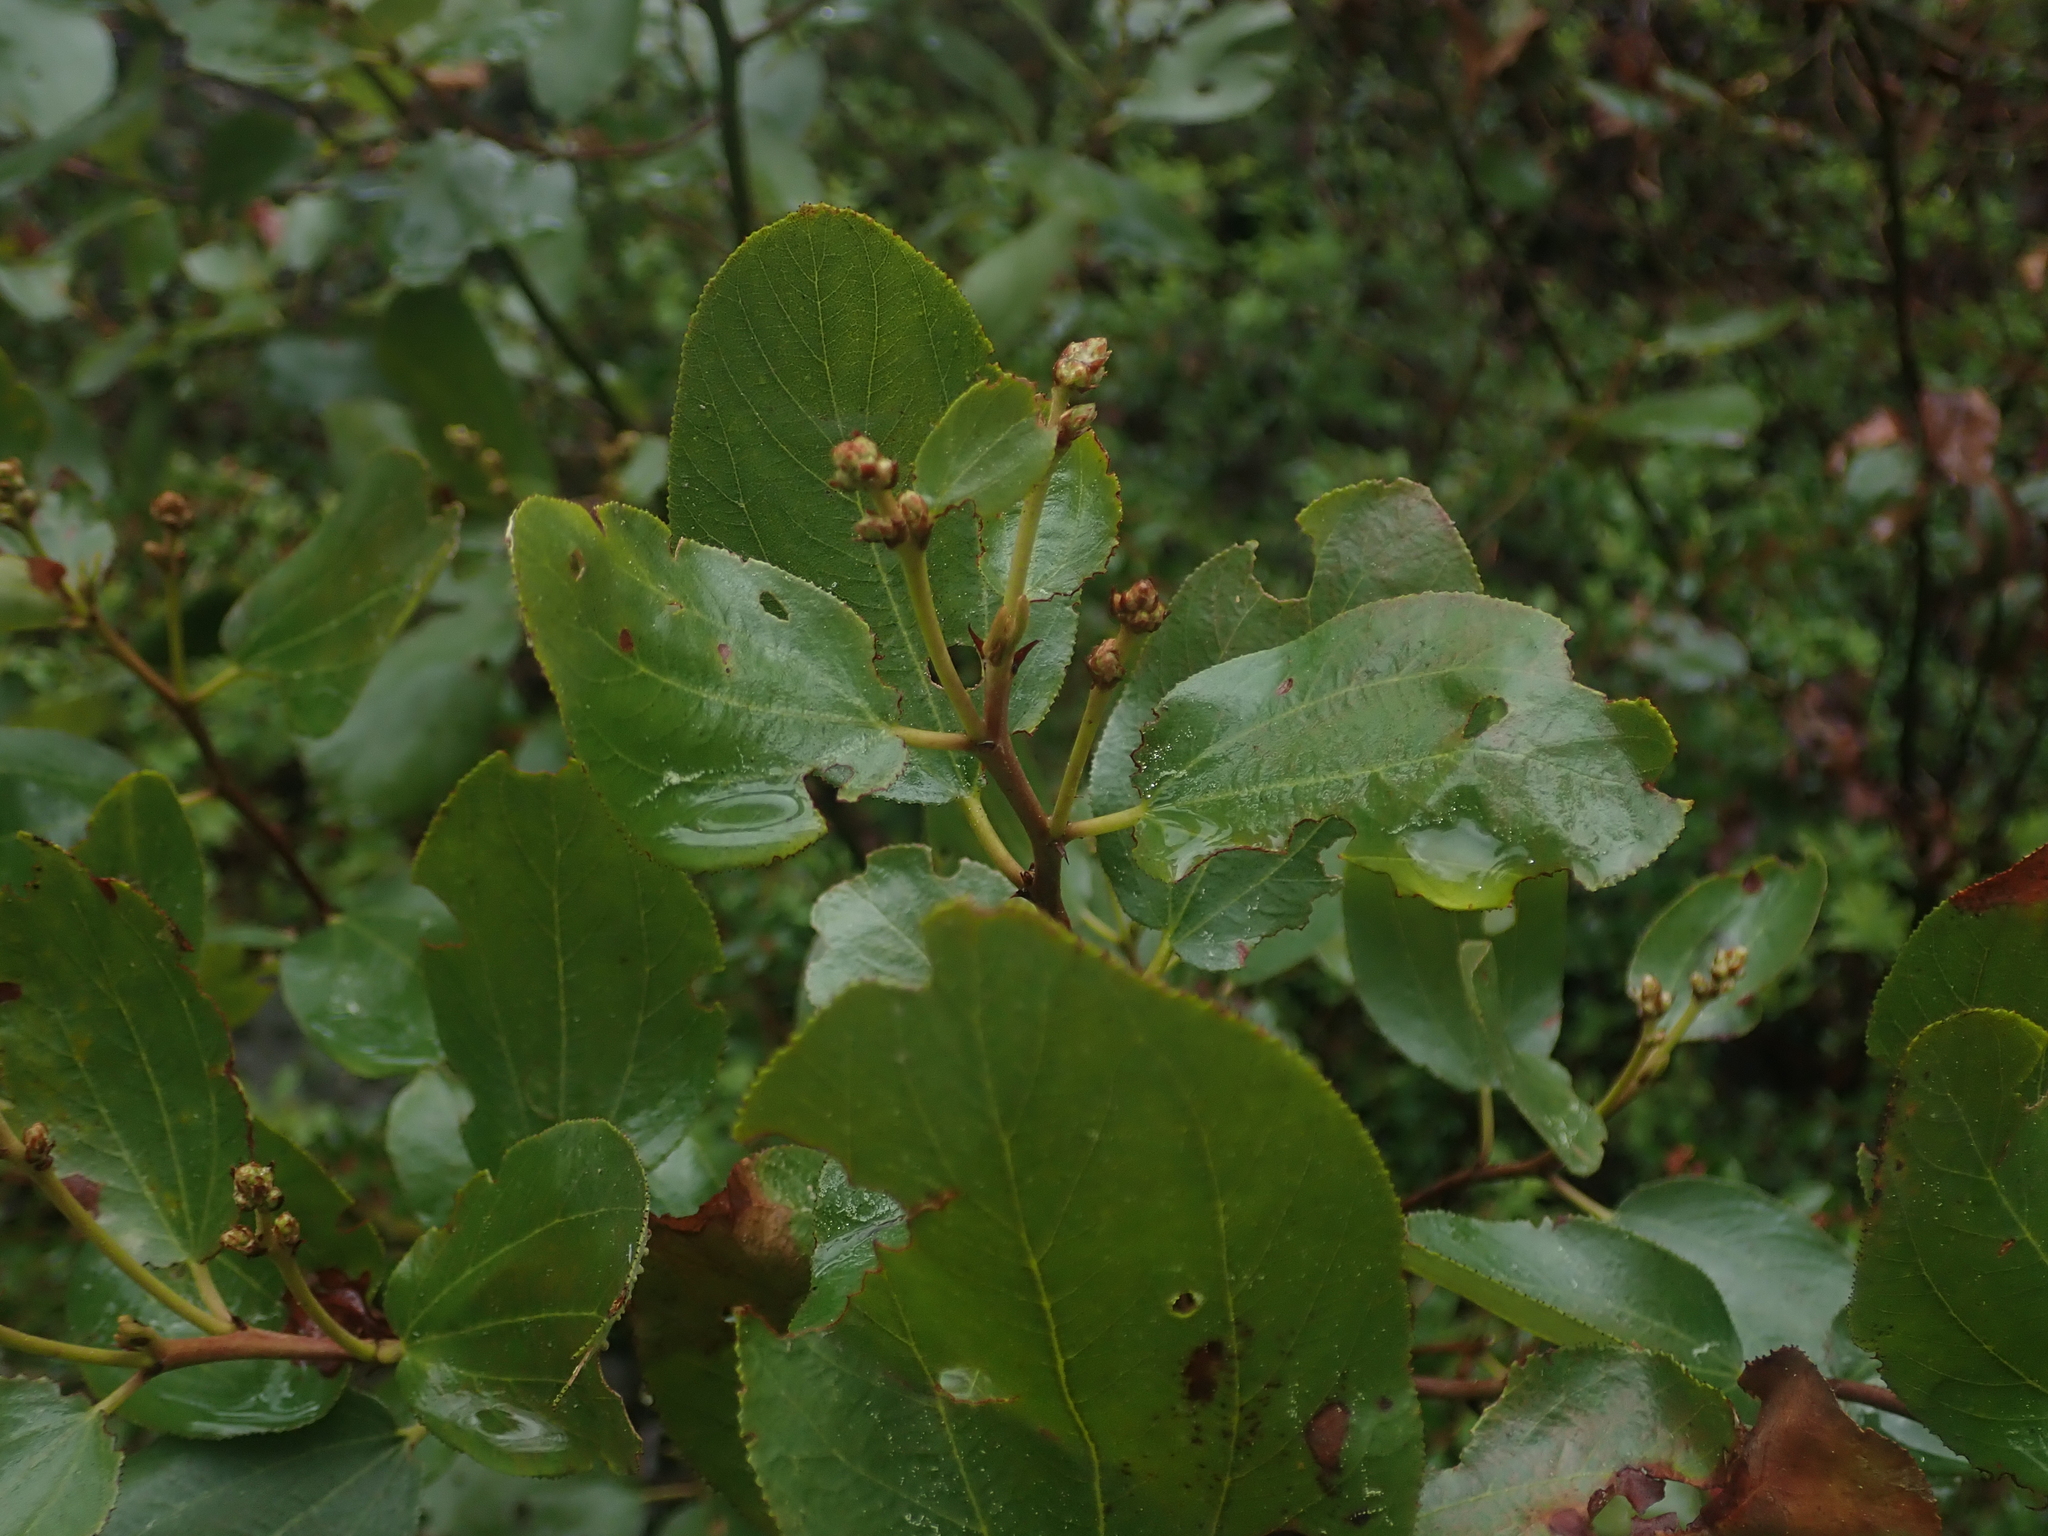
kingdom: Plantae
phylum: Tracheophyta
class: Magnoliopsida
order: Rosales
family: Rhamnaceae
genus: Ceanothus
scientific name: Ceanothus velutinus
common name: Snowbrush
